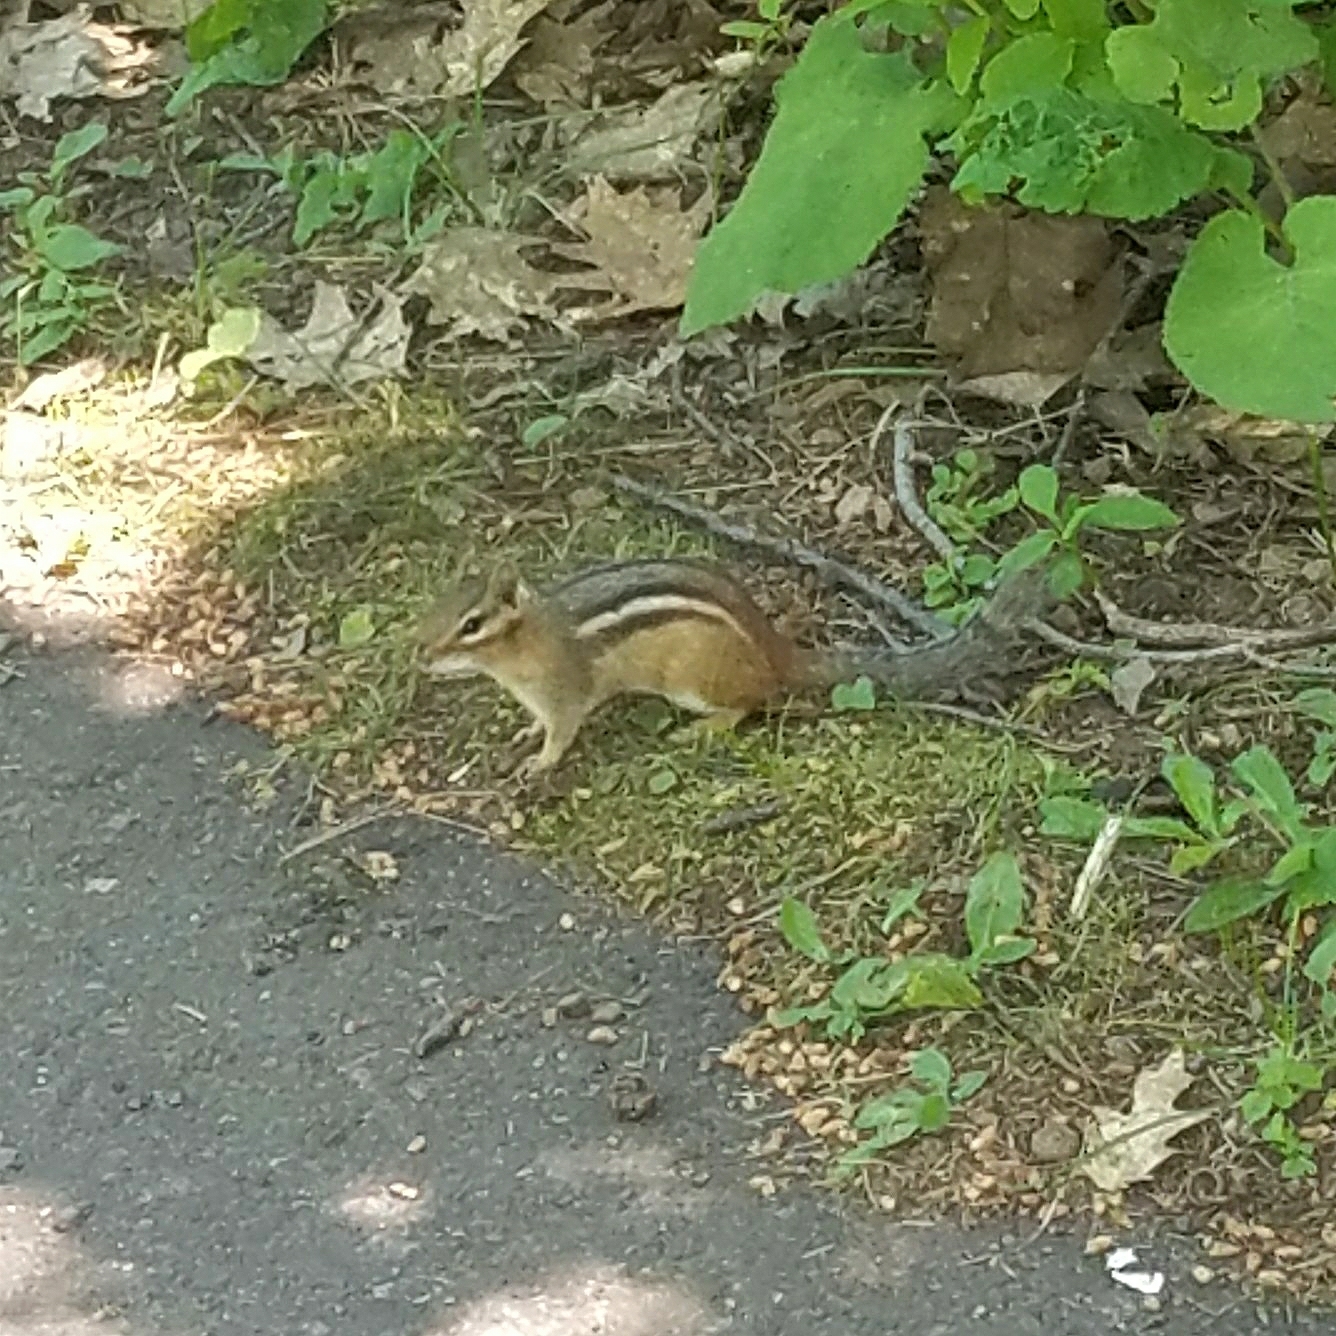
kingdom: Animalia
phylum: Chordata
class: Mammalia
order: Rodentia
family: Sciuridae
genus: Tamias
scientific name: Tamias striatus
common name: Eastern chipmunk
